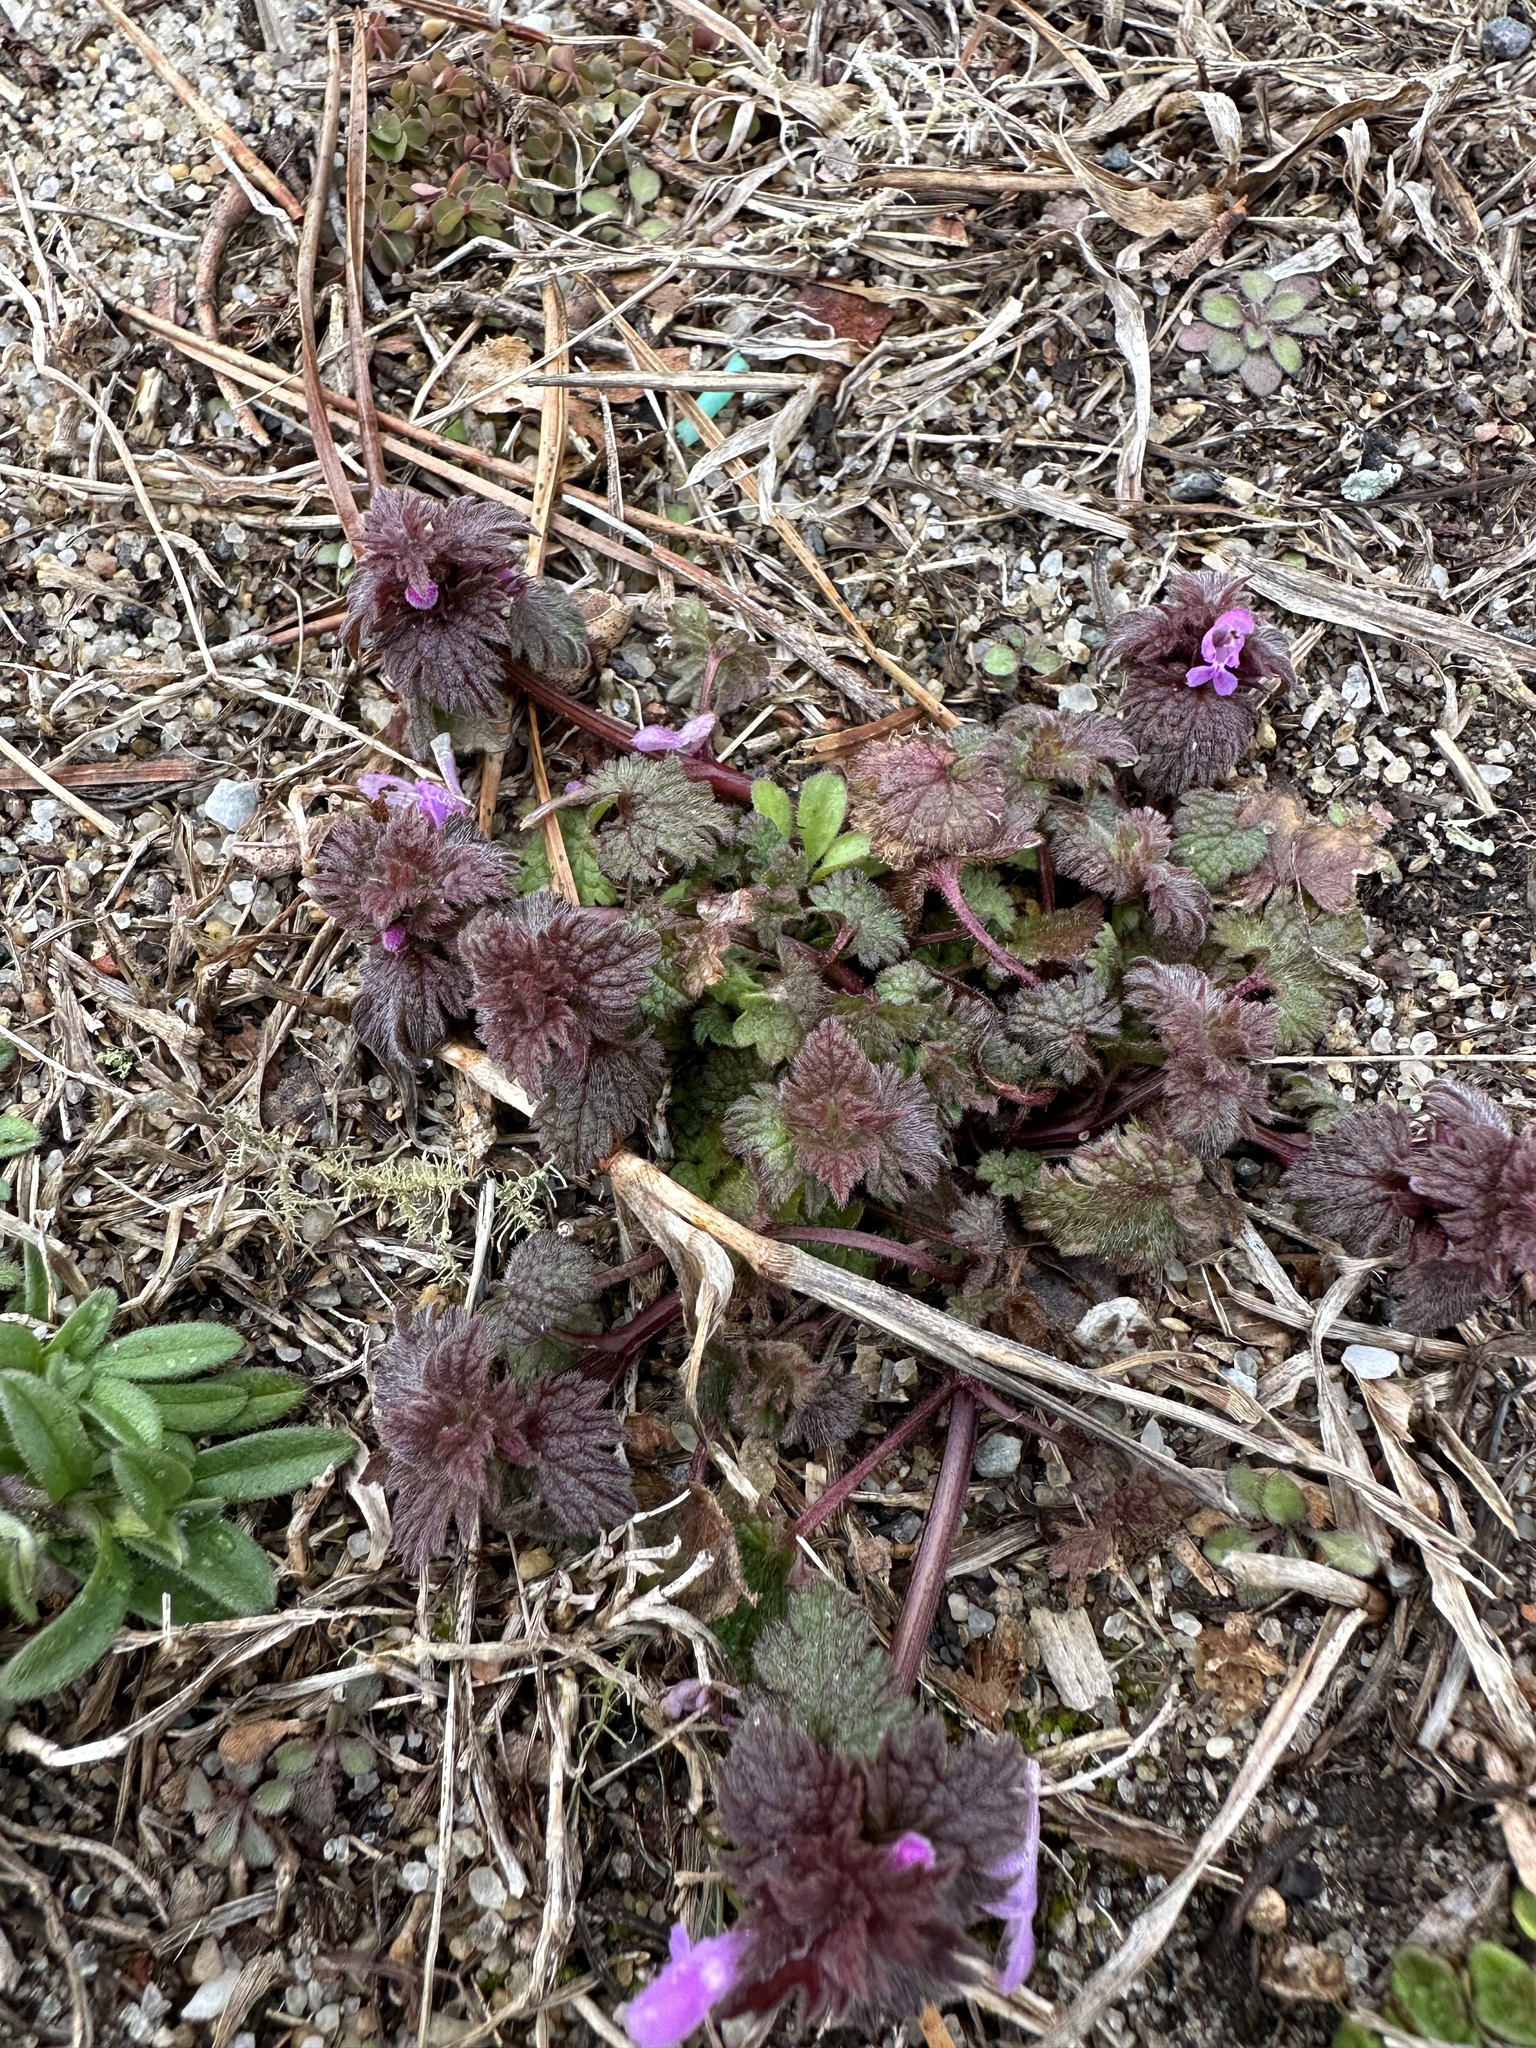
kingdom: Plantae
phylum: Tracheophyta
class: Magnoliopsida
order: Lamiales
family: Lamiaceae
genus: Lamium
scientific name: Lamium hybridum
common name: Cut-leaved dead-nettle
